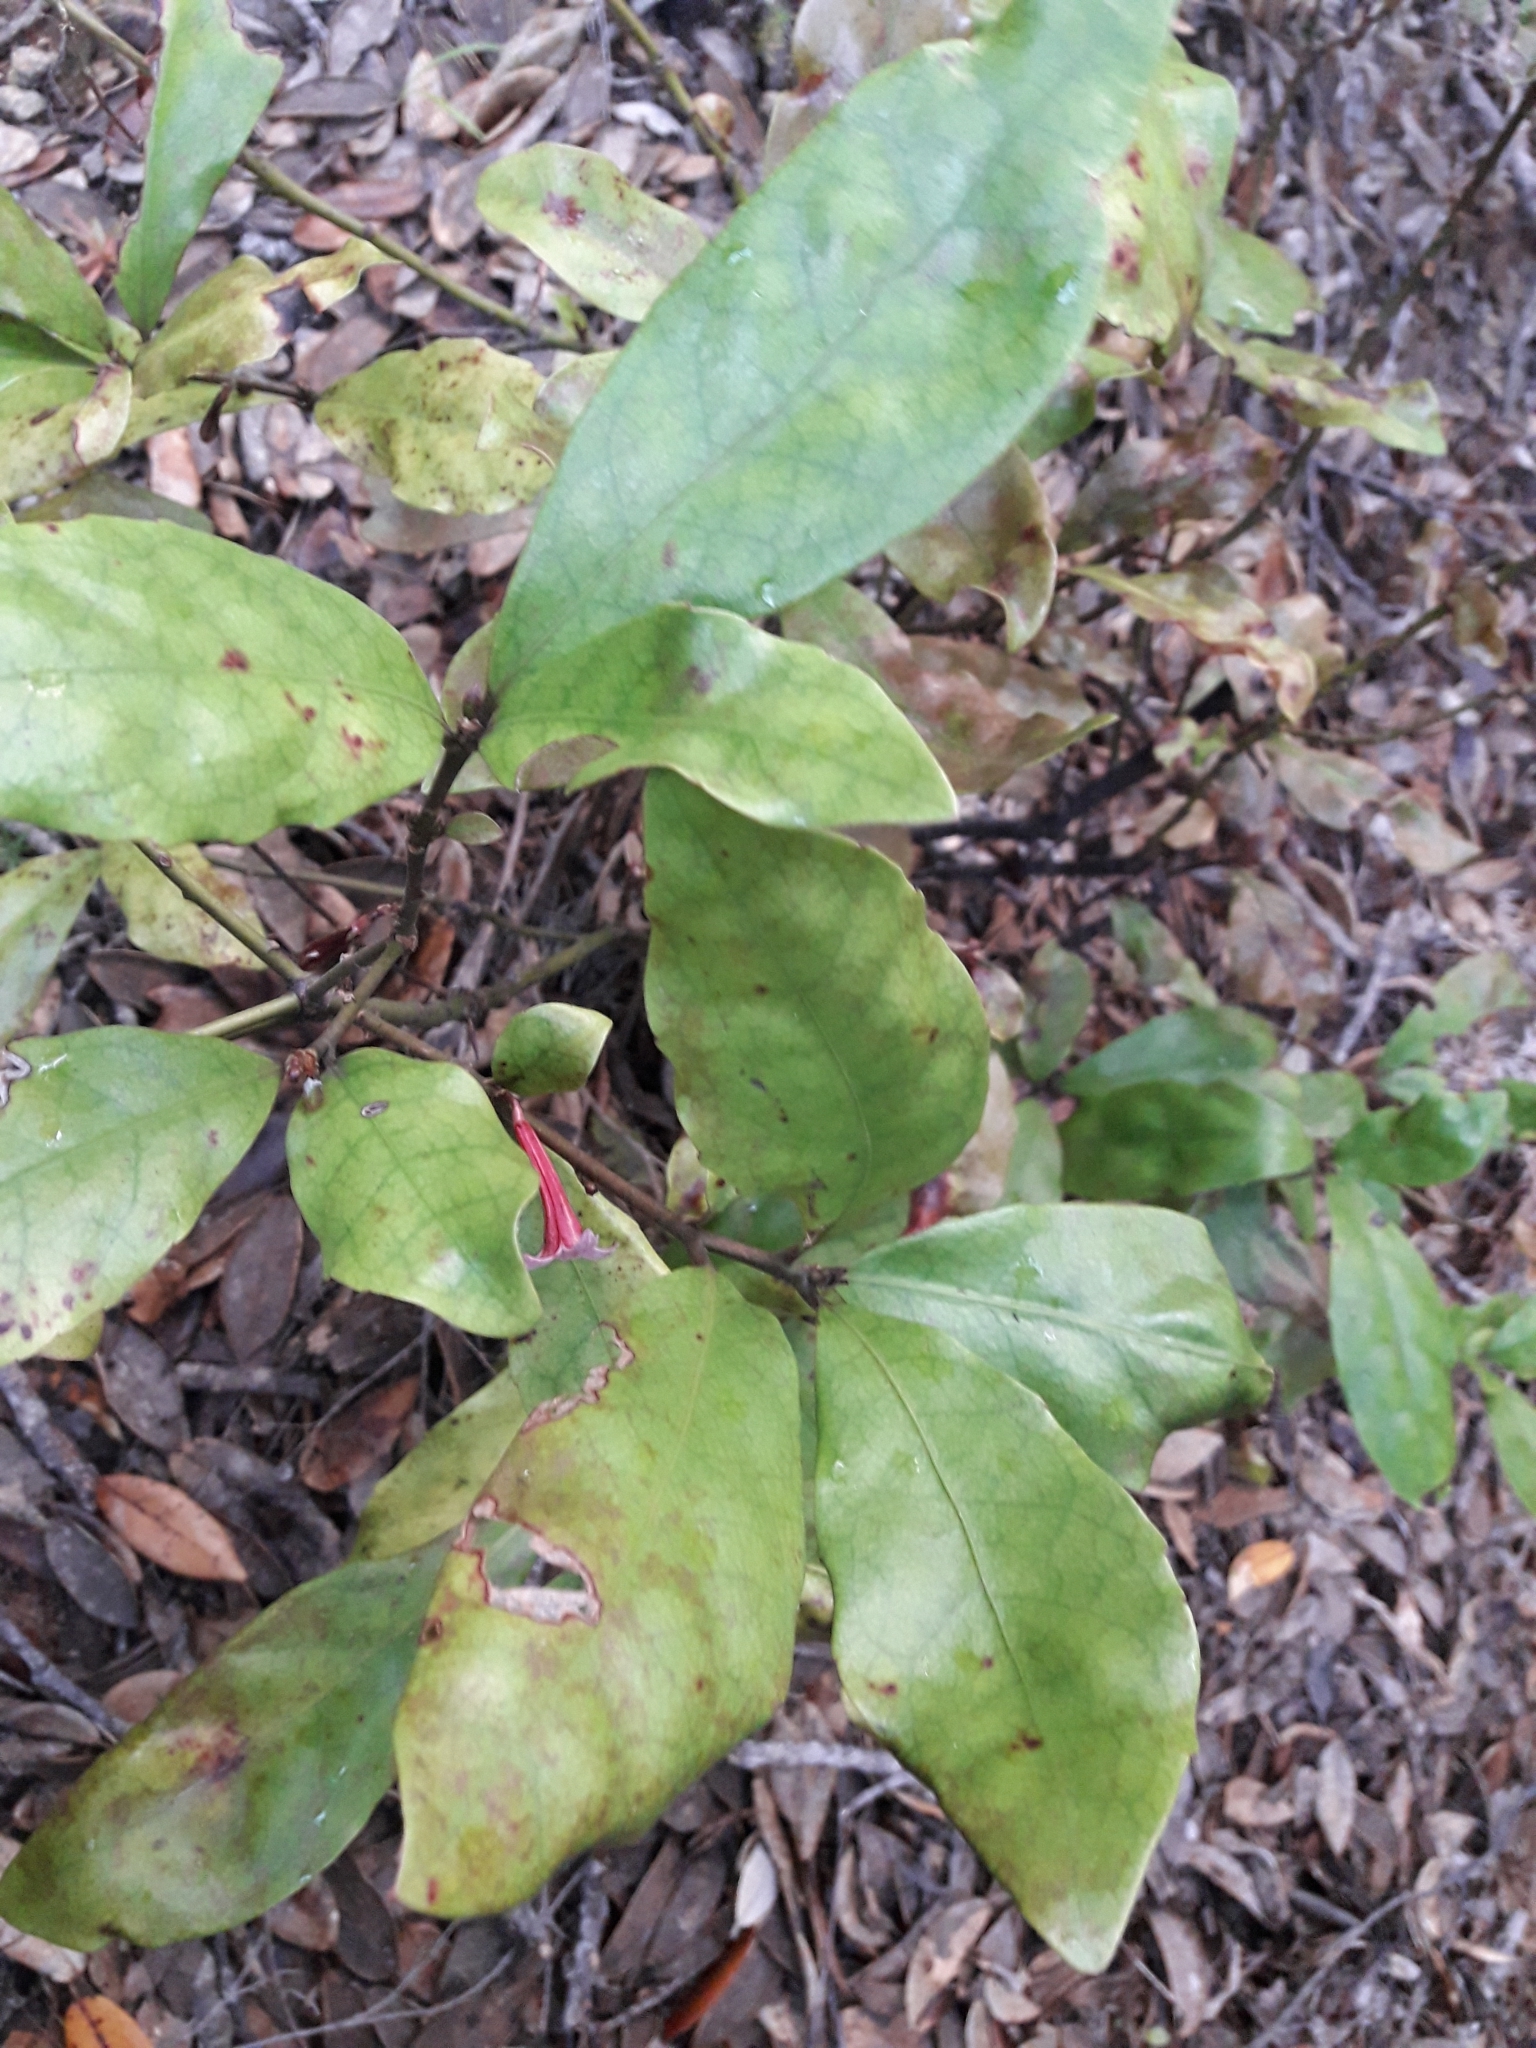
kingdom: Plantae
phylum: Tracheophyta
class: Magnoliopsida
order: Asterales
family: Alseuosmiaceae
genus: Alseuosmia
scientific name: Alseuosmia macrophylla
